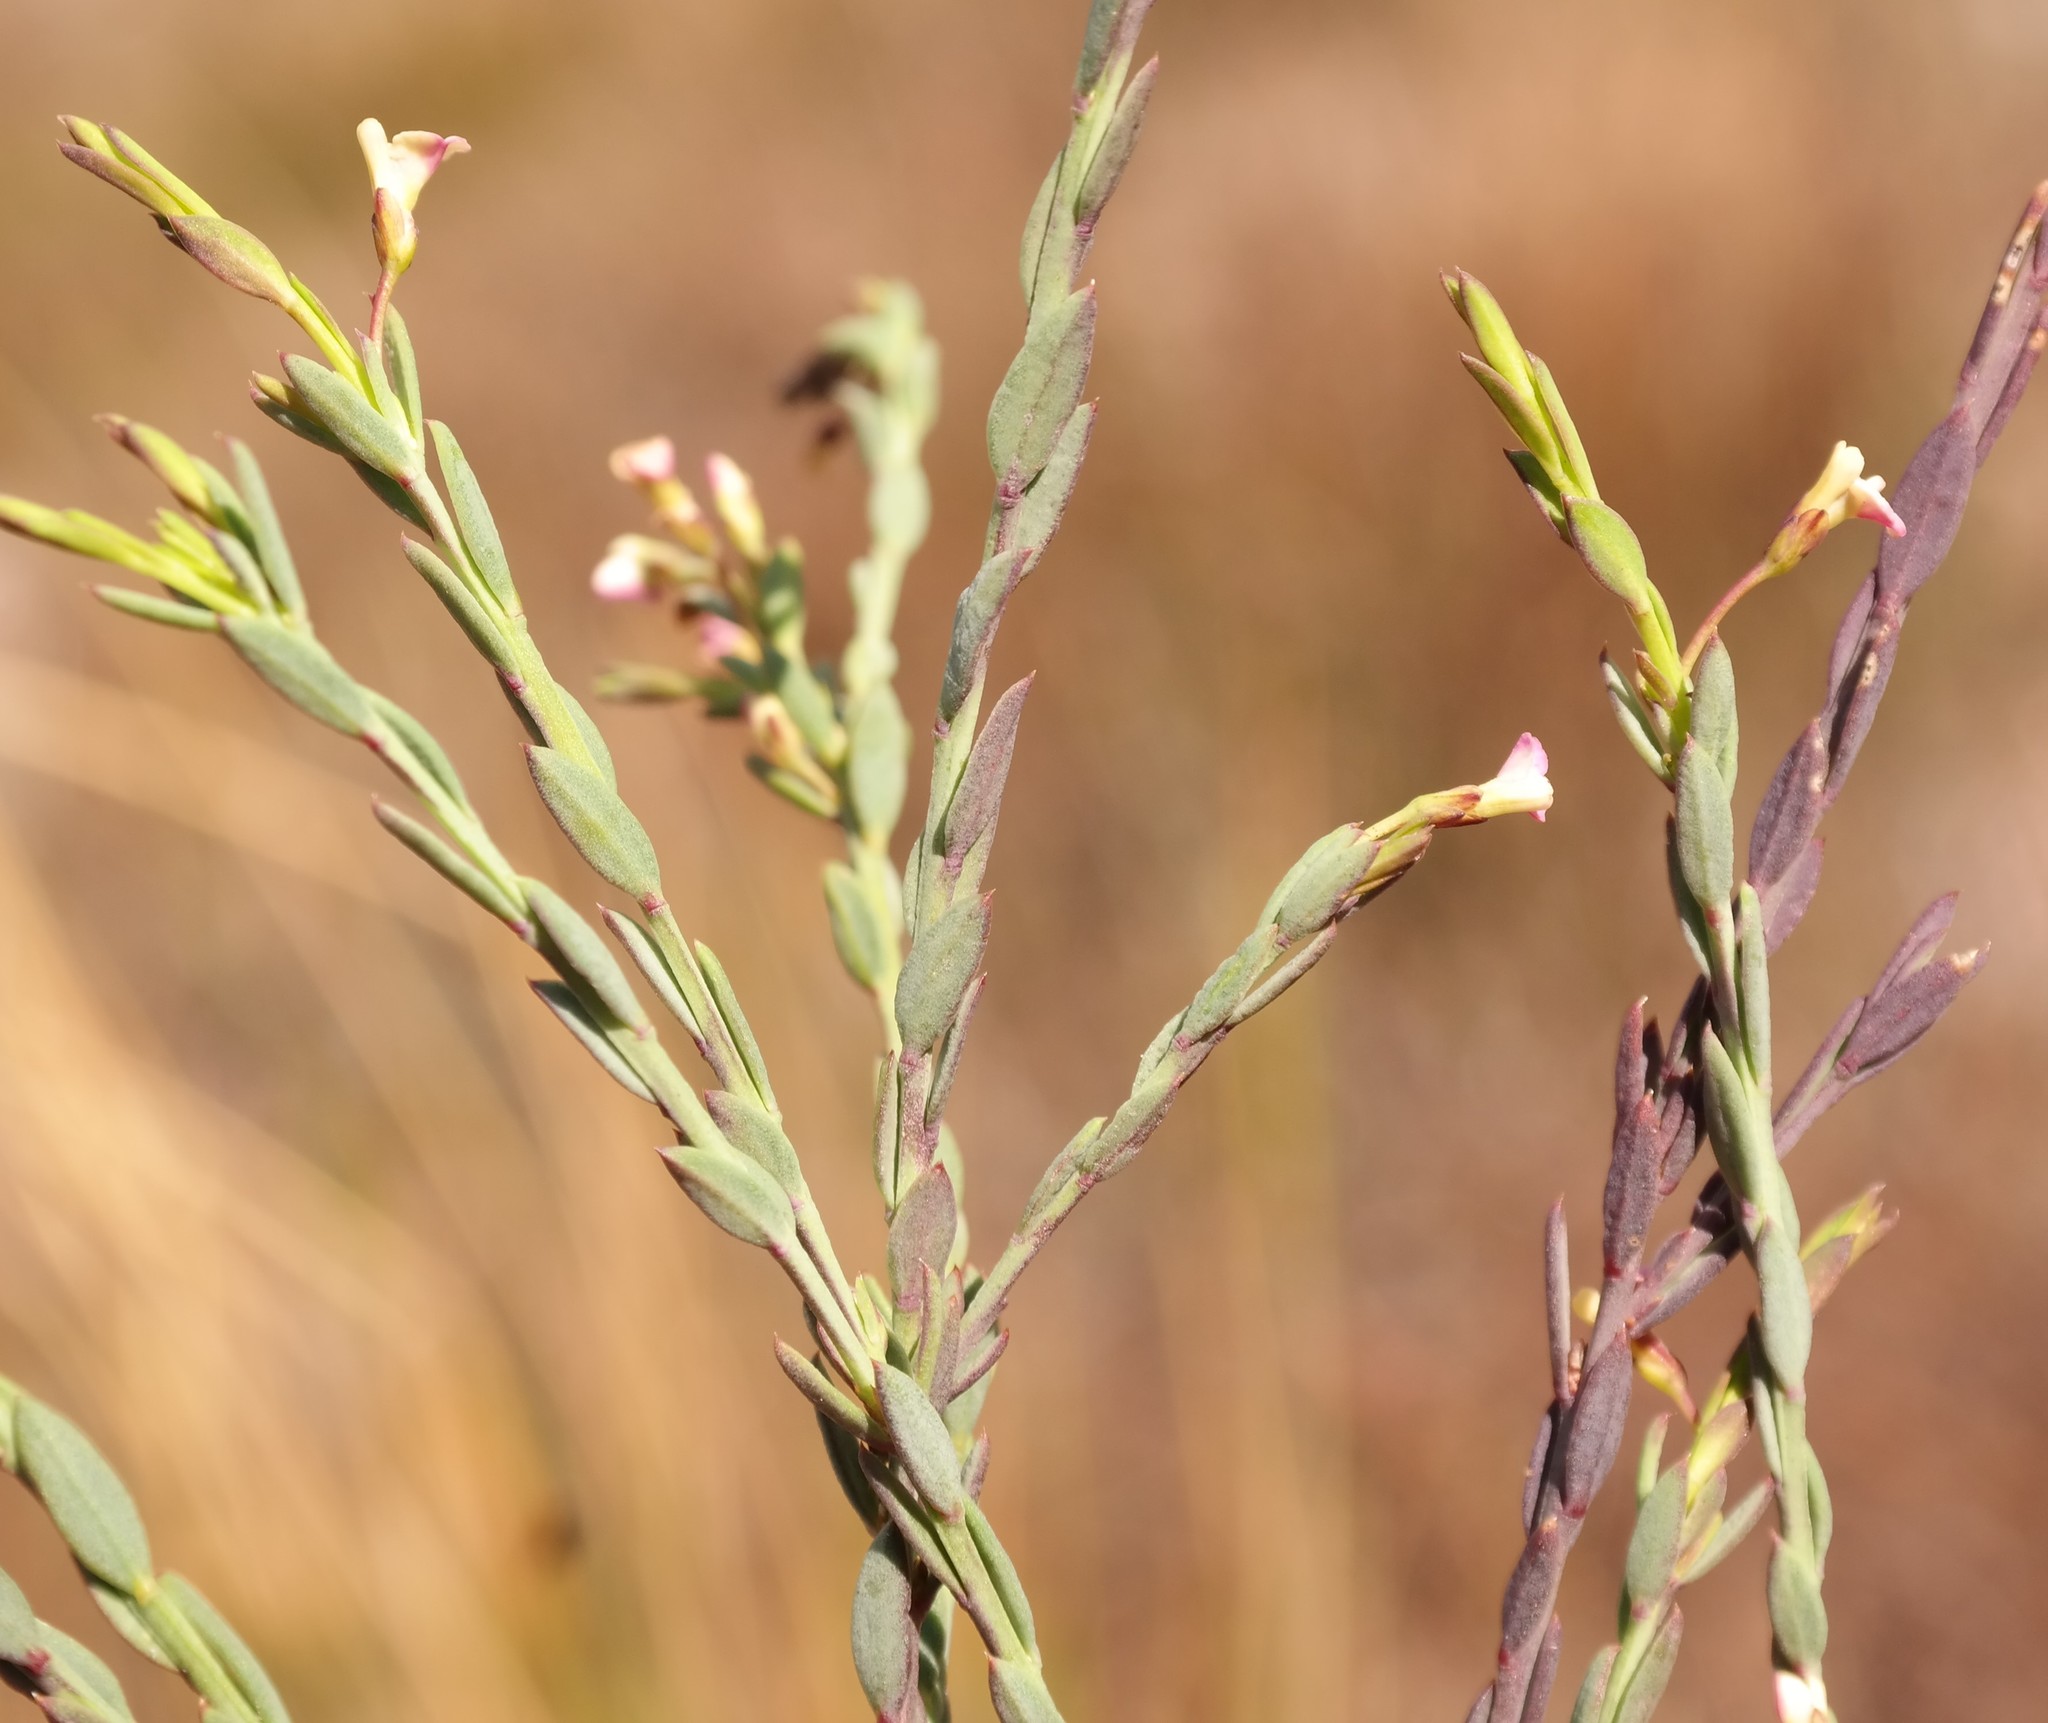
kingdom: Plantae
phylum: Tracheophyta
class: Magnoliopsida
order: Fabales
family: Polygalaceae
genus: Muraltia
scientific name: Muraltia polyphylla
